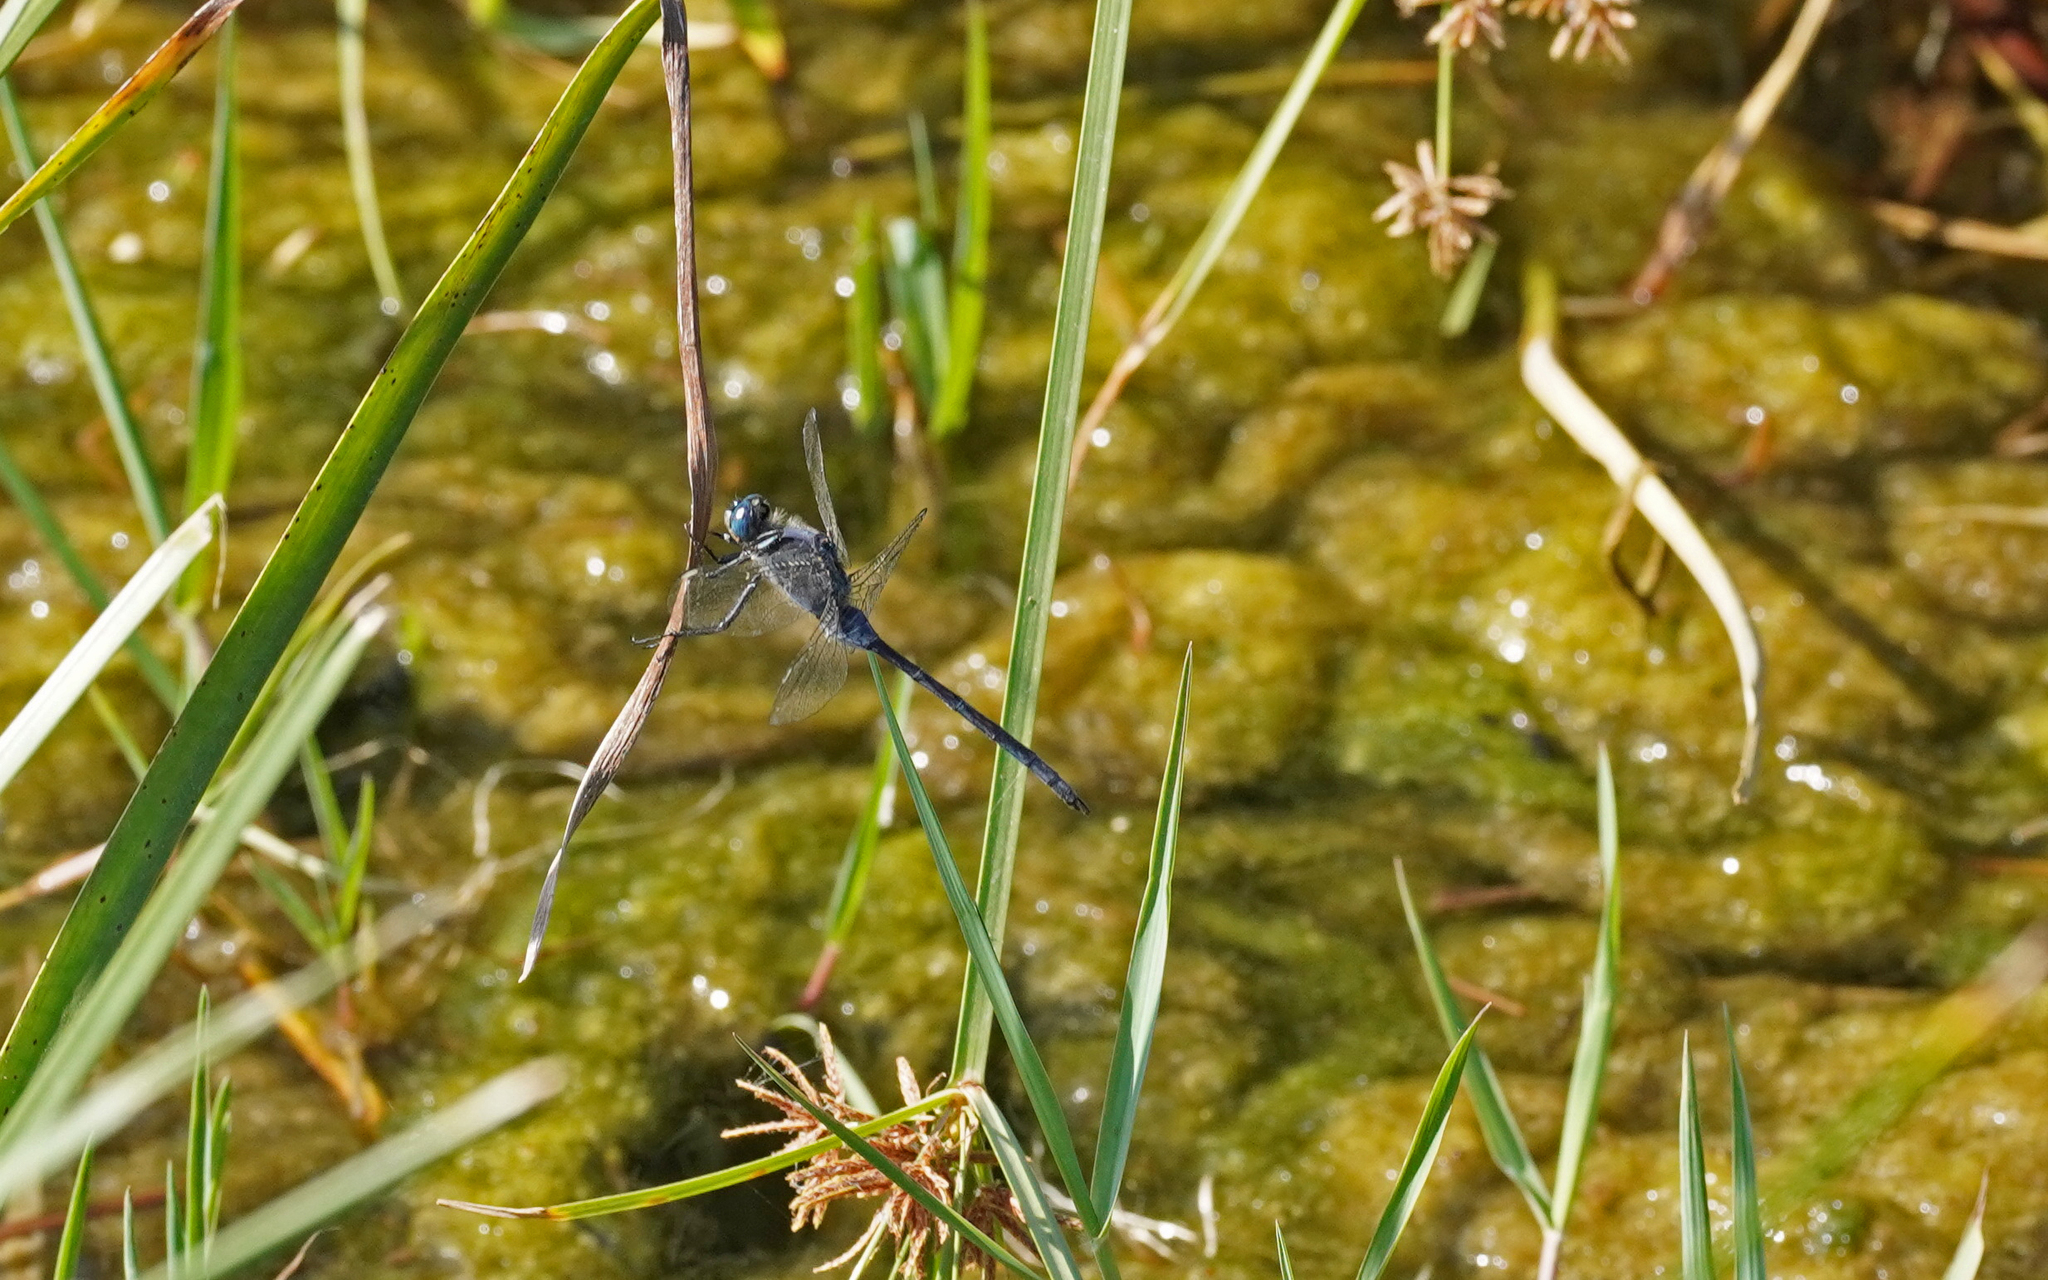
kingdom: Animalia
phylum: Arthropoda
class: Insecta
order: Odonata
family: Libellulidae
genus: Orthetrum
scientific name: Orthetrum trinacria
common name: Long skimmer
